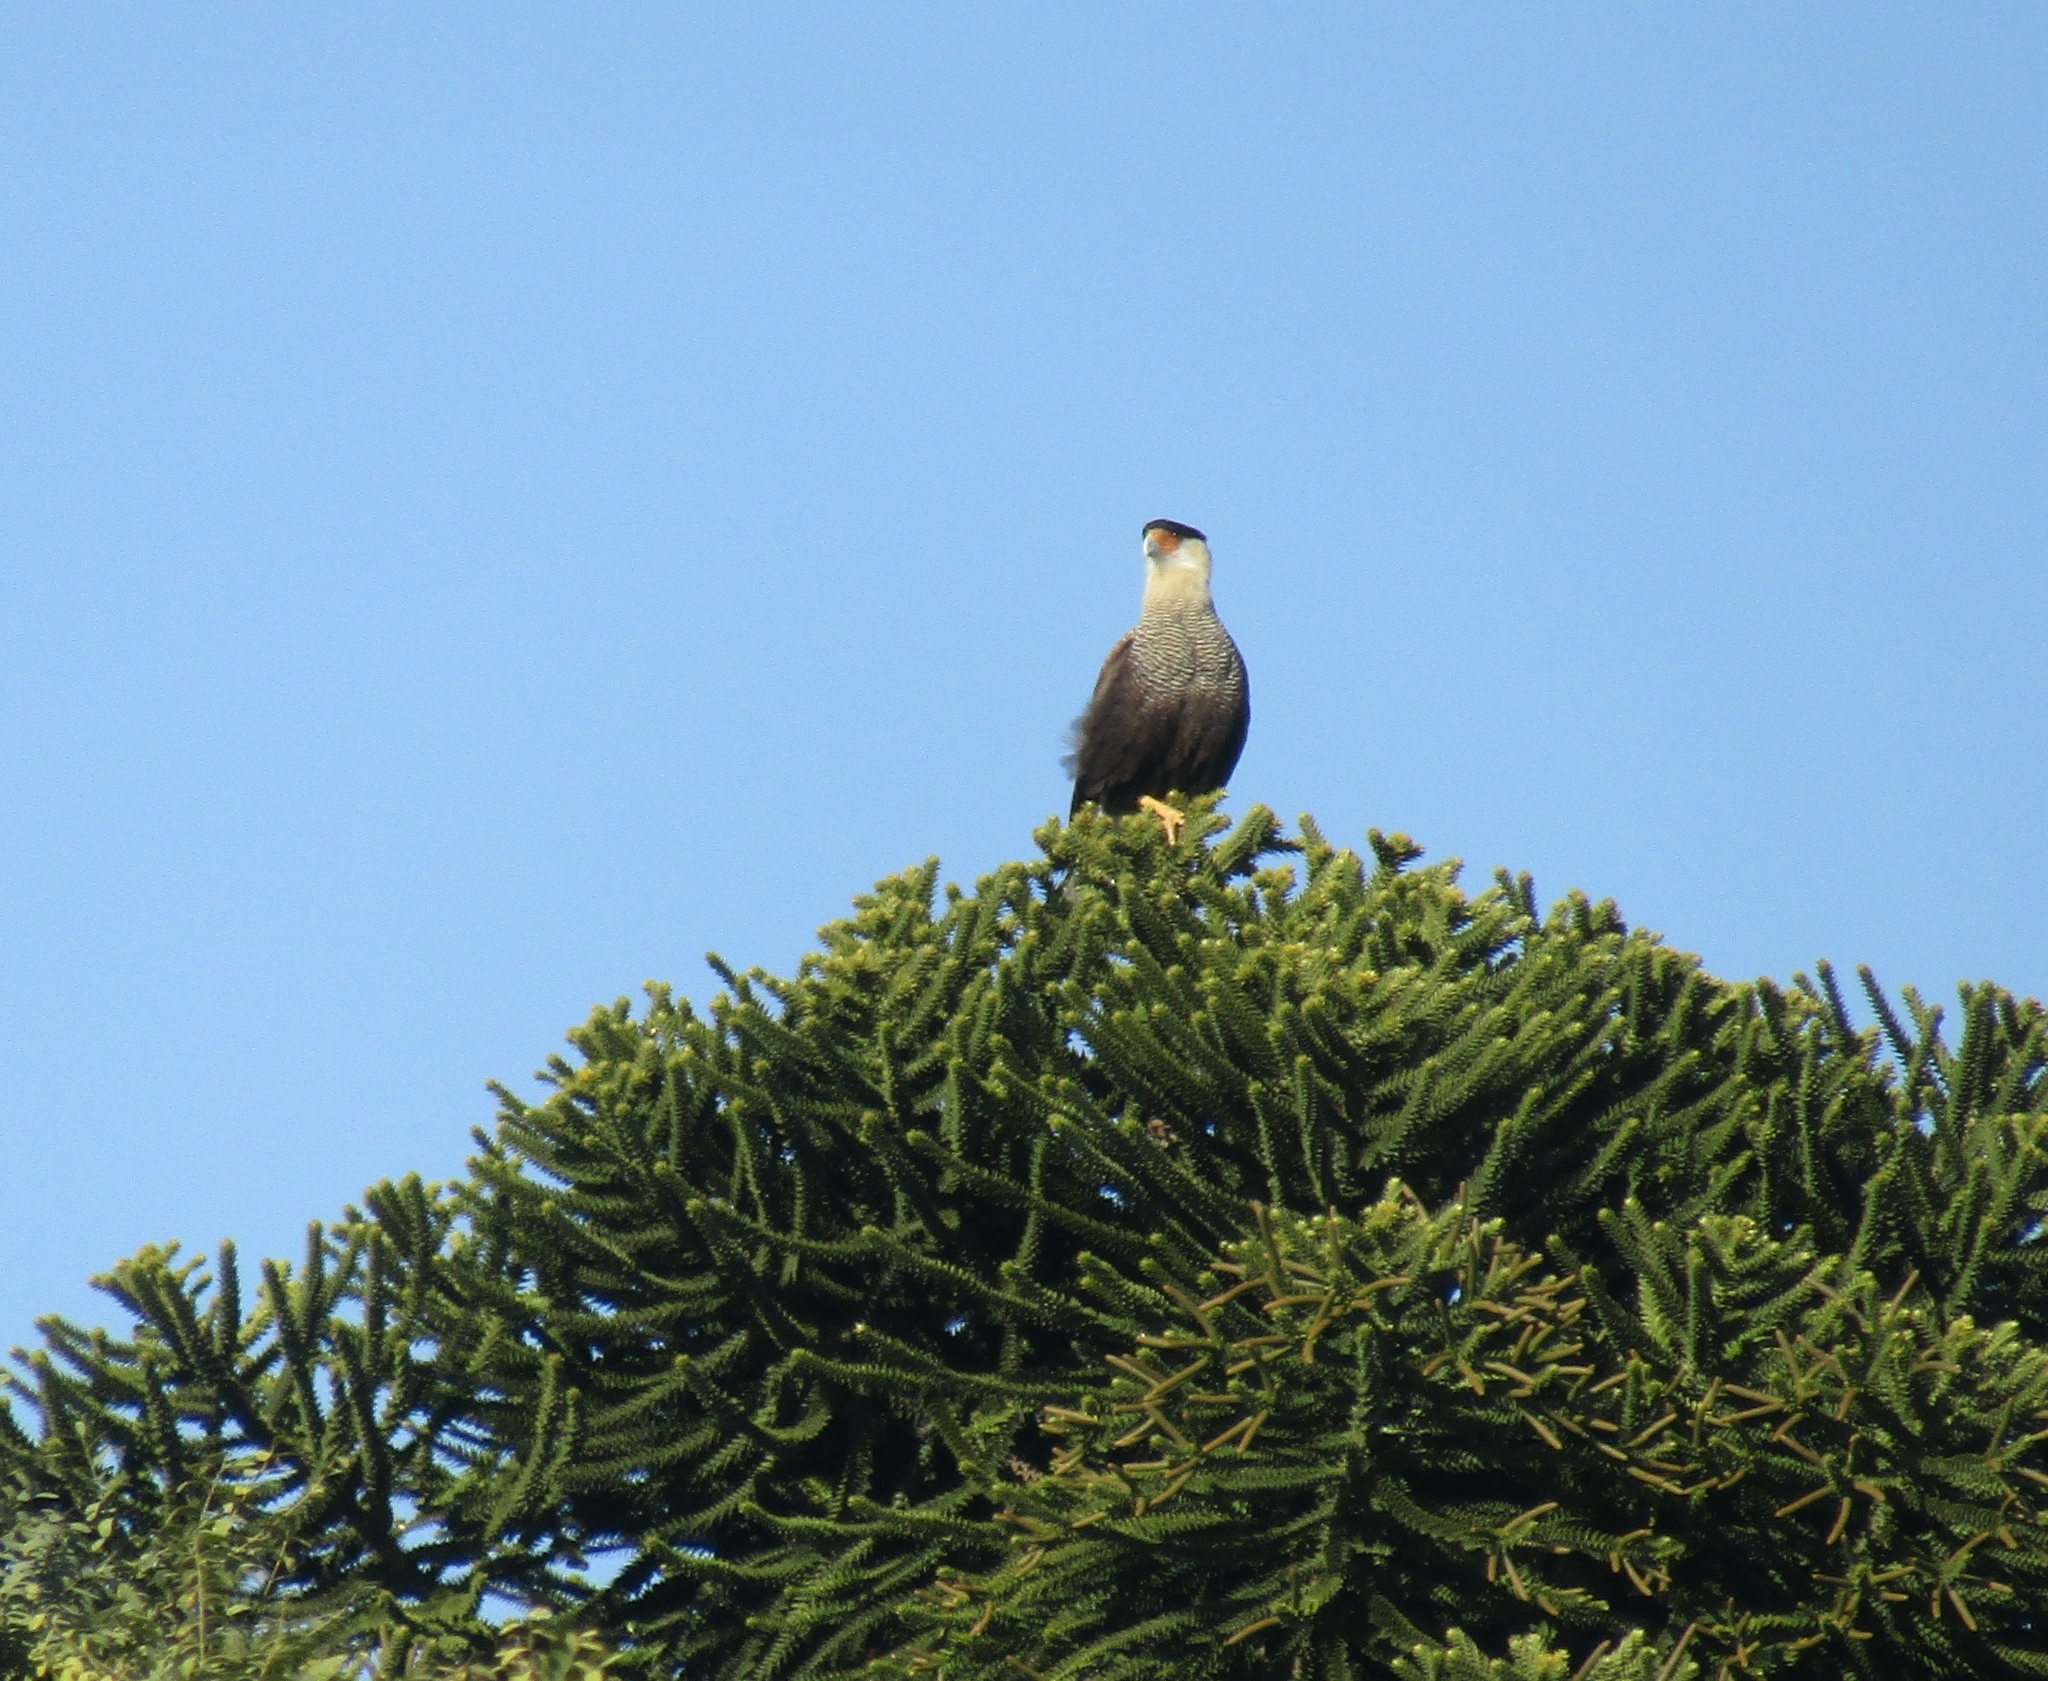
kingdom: Animalia
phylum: Chordata
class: Aves
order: Falconiformes
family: Falconidae
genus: Caracara
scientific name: Caracara plancus
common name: Southern caracara
